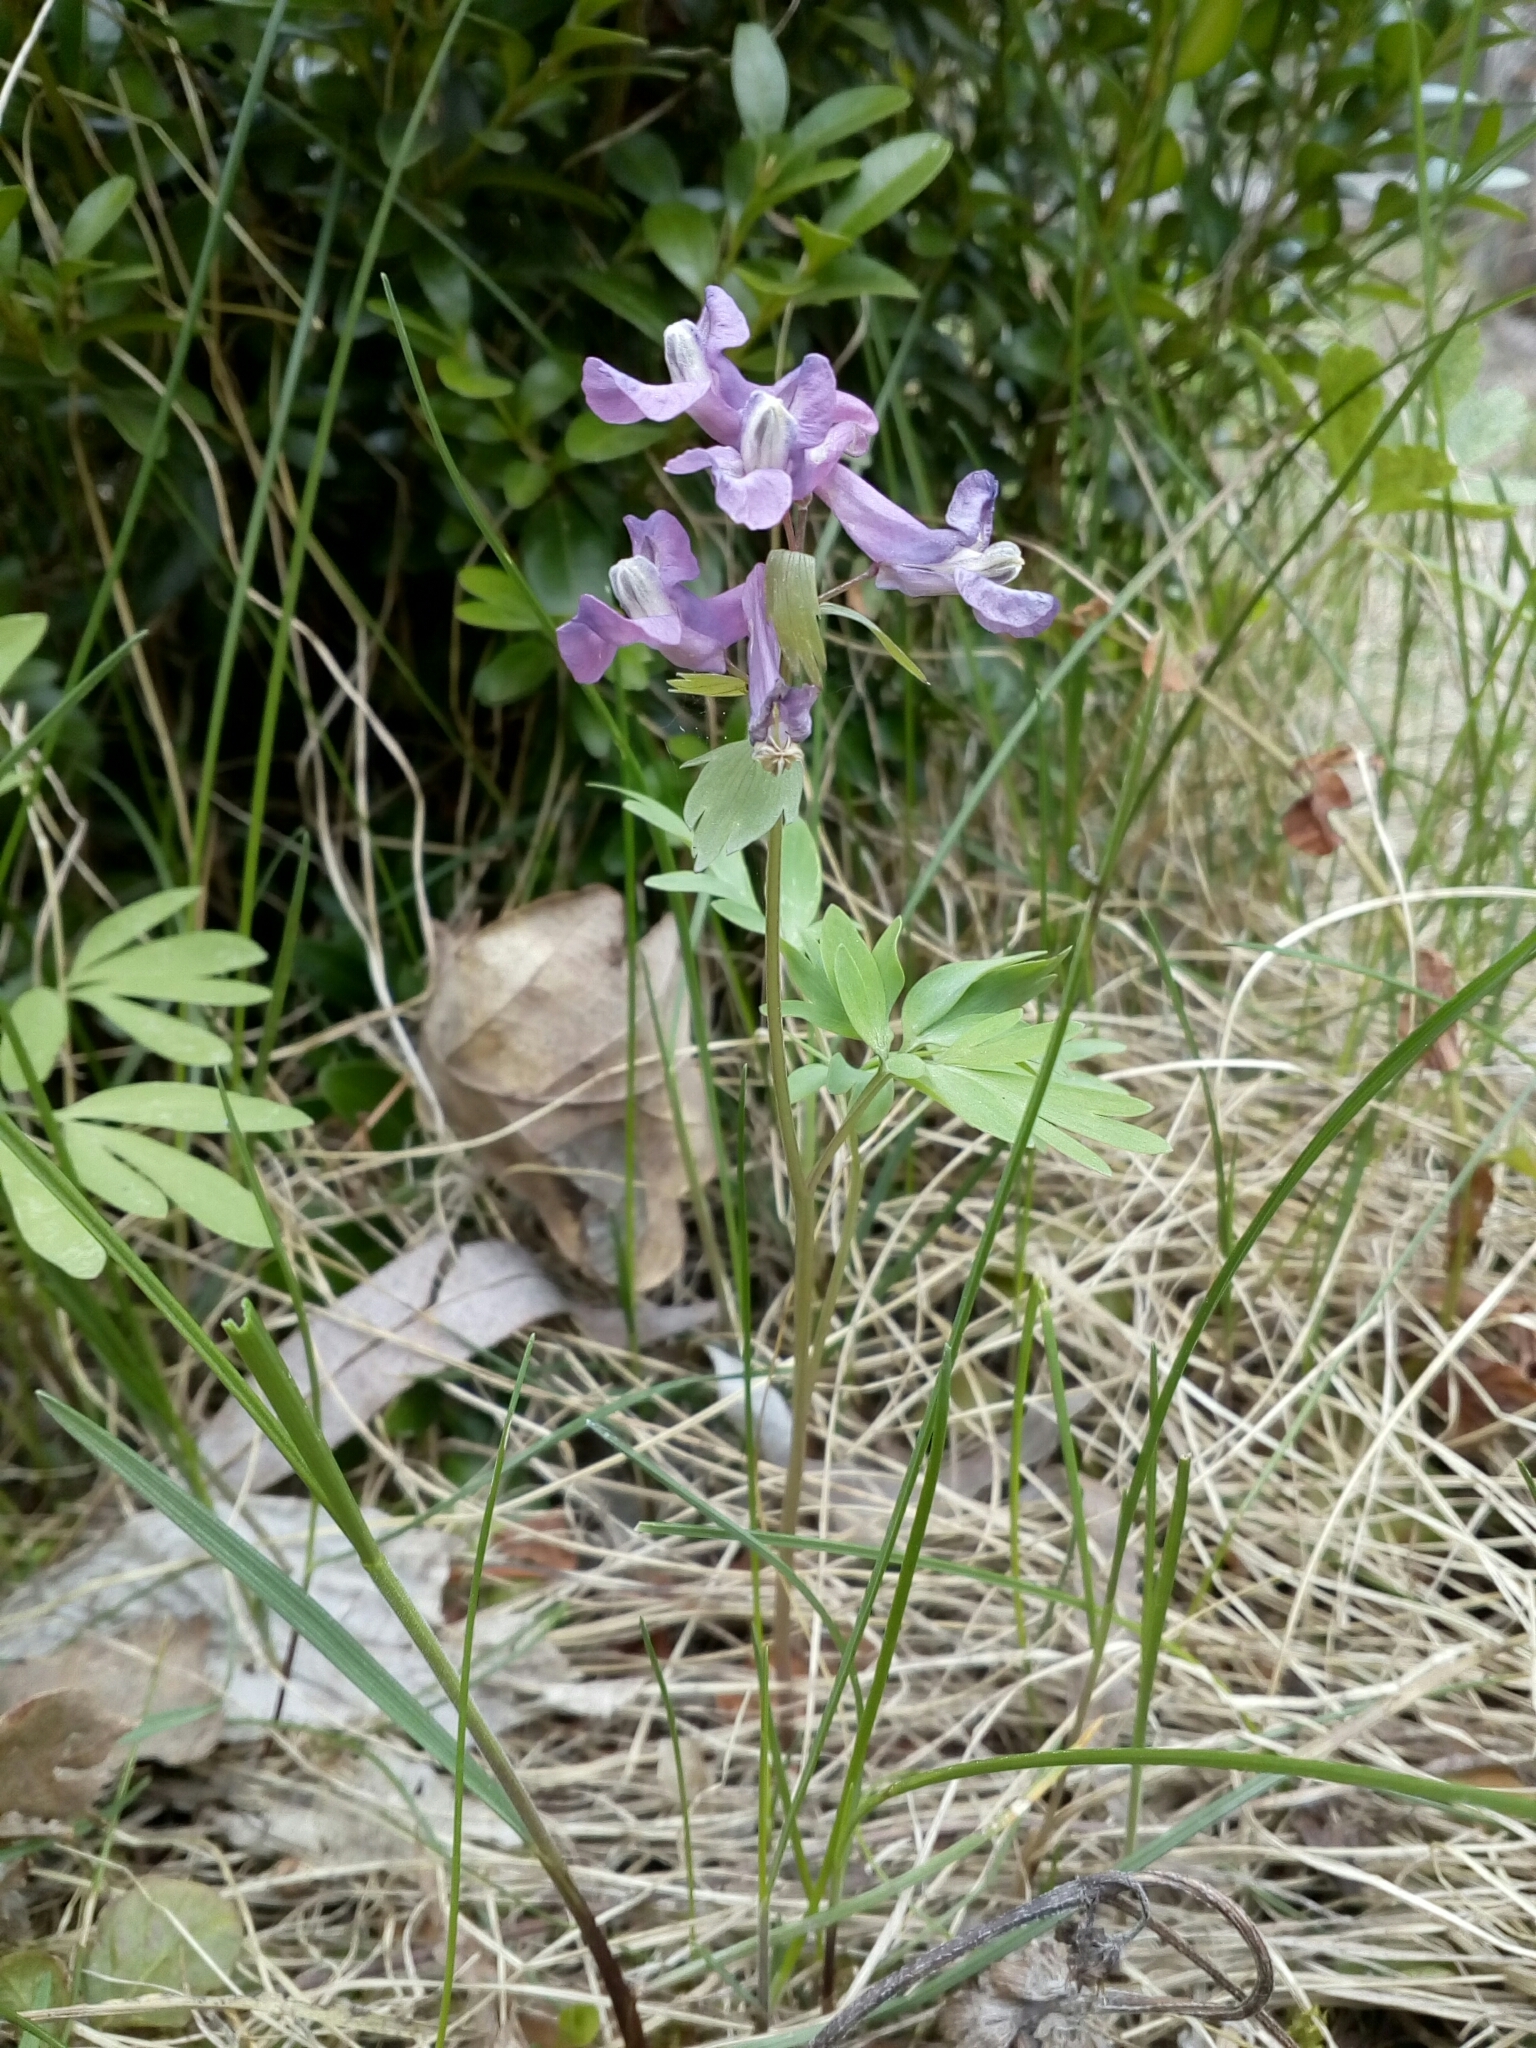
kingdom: Plantae
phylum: Tracheophyta
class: Magnoliopsida
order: Ranunculales
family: Papaveraceae
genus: Corydalis
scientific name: Corydalis solida
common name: Bird-in-a-bush
